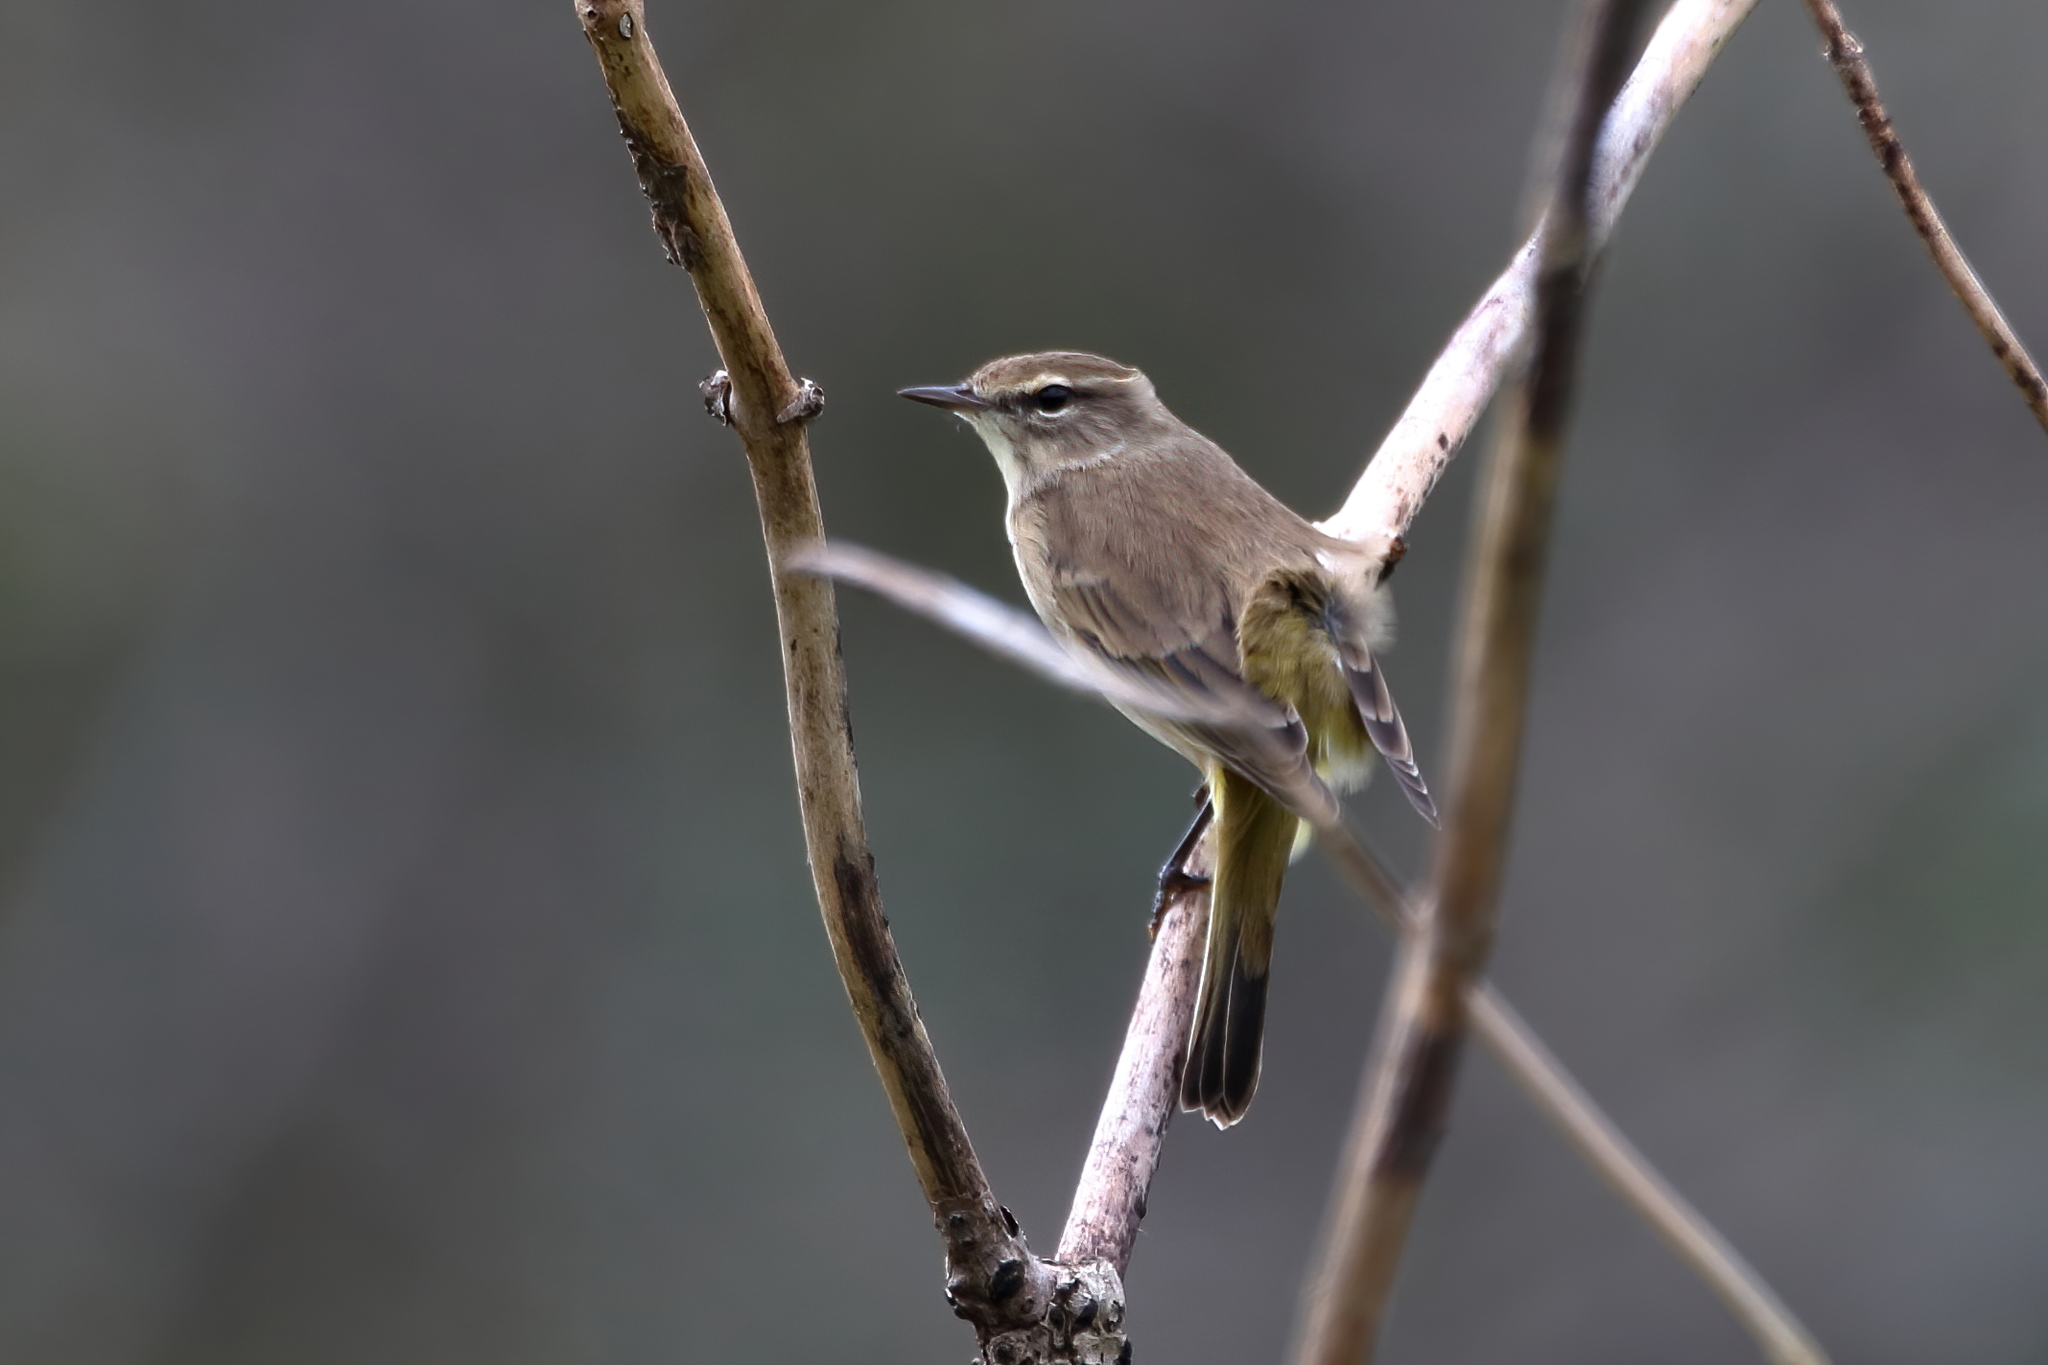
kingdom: Animalia
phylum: Chordata
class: Aves
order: Passeriformes
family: Parulidae
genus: Setophaga
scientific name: Setophaga palmarum
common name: Palm warbler
